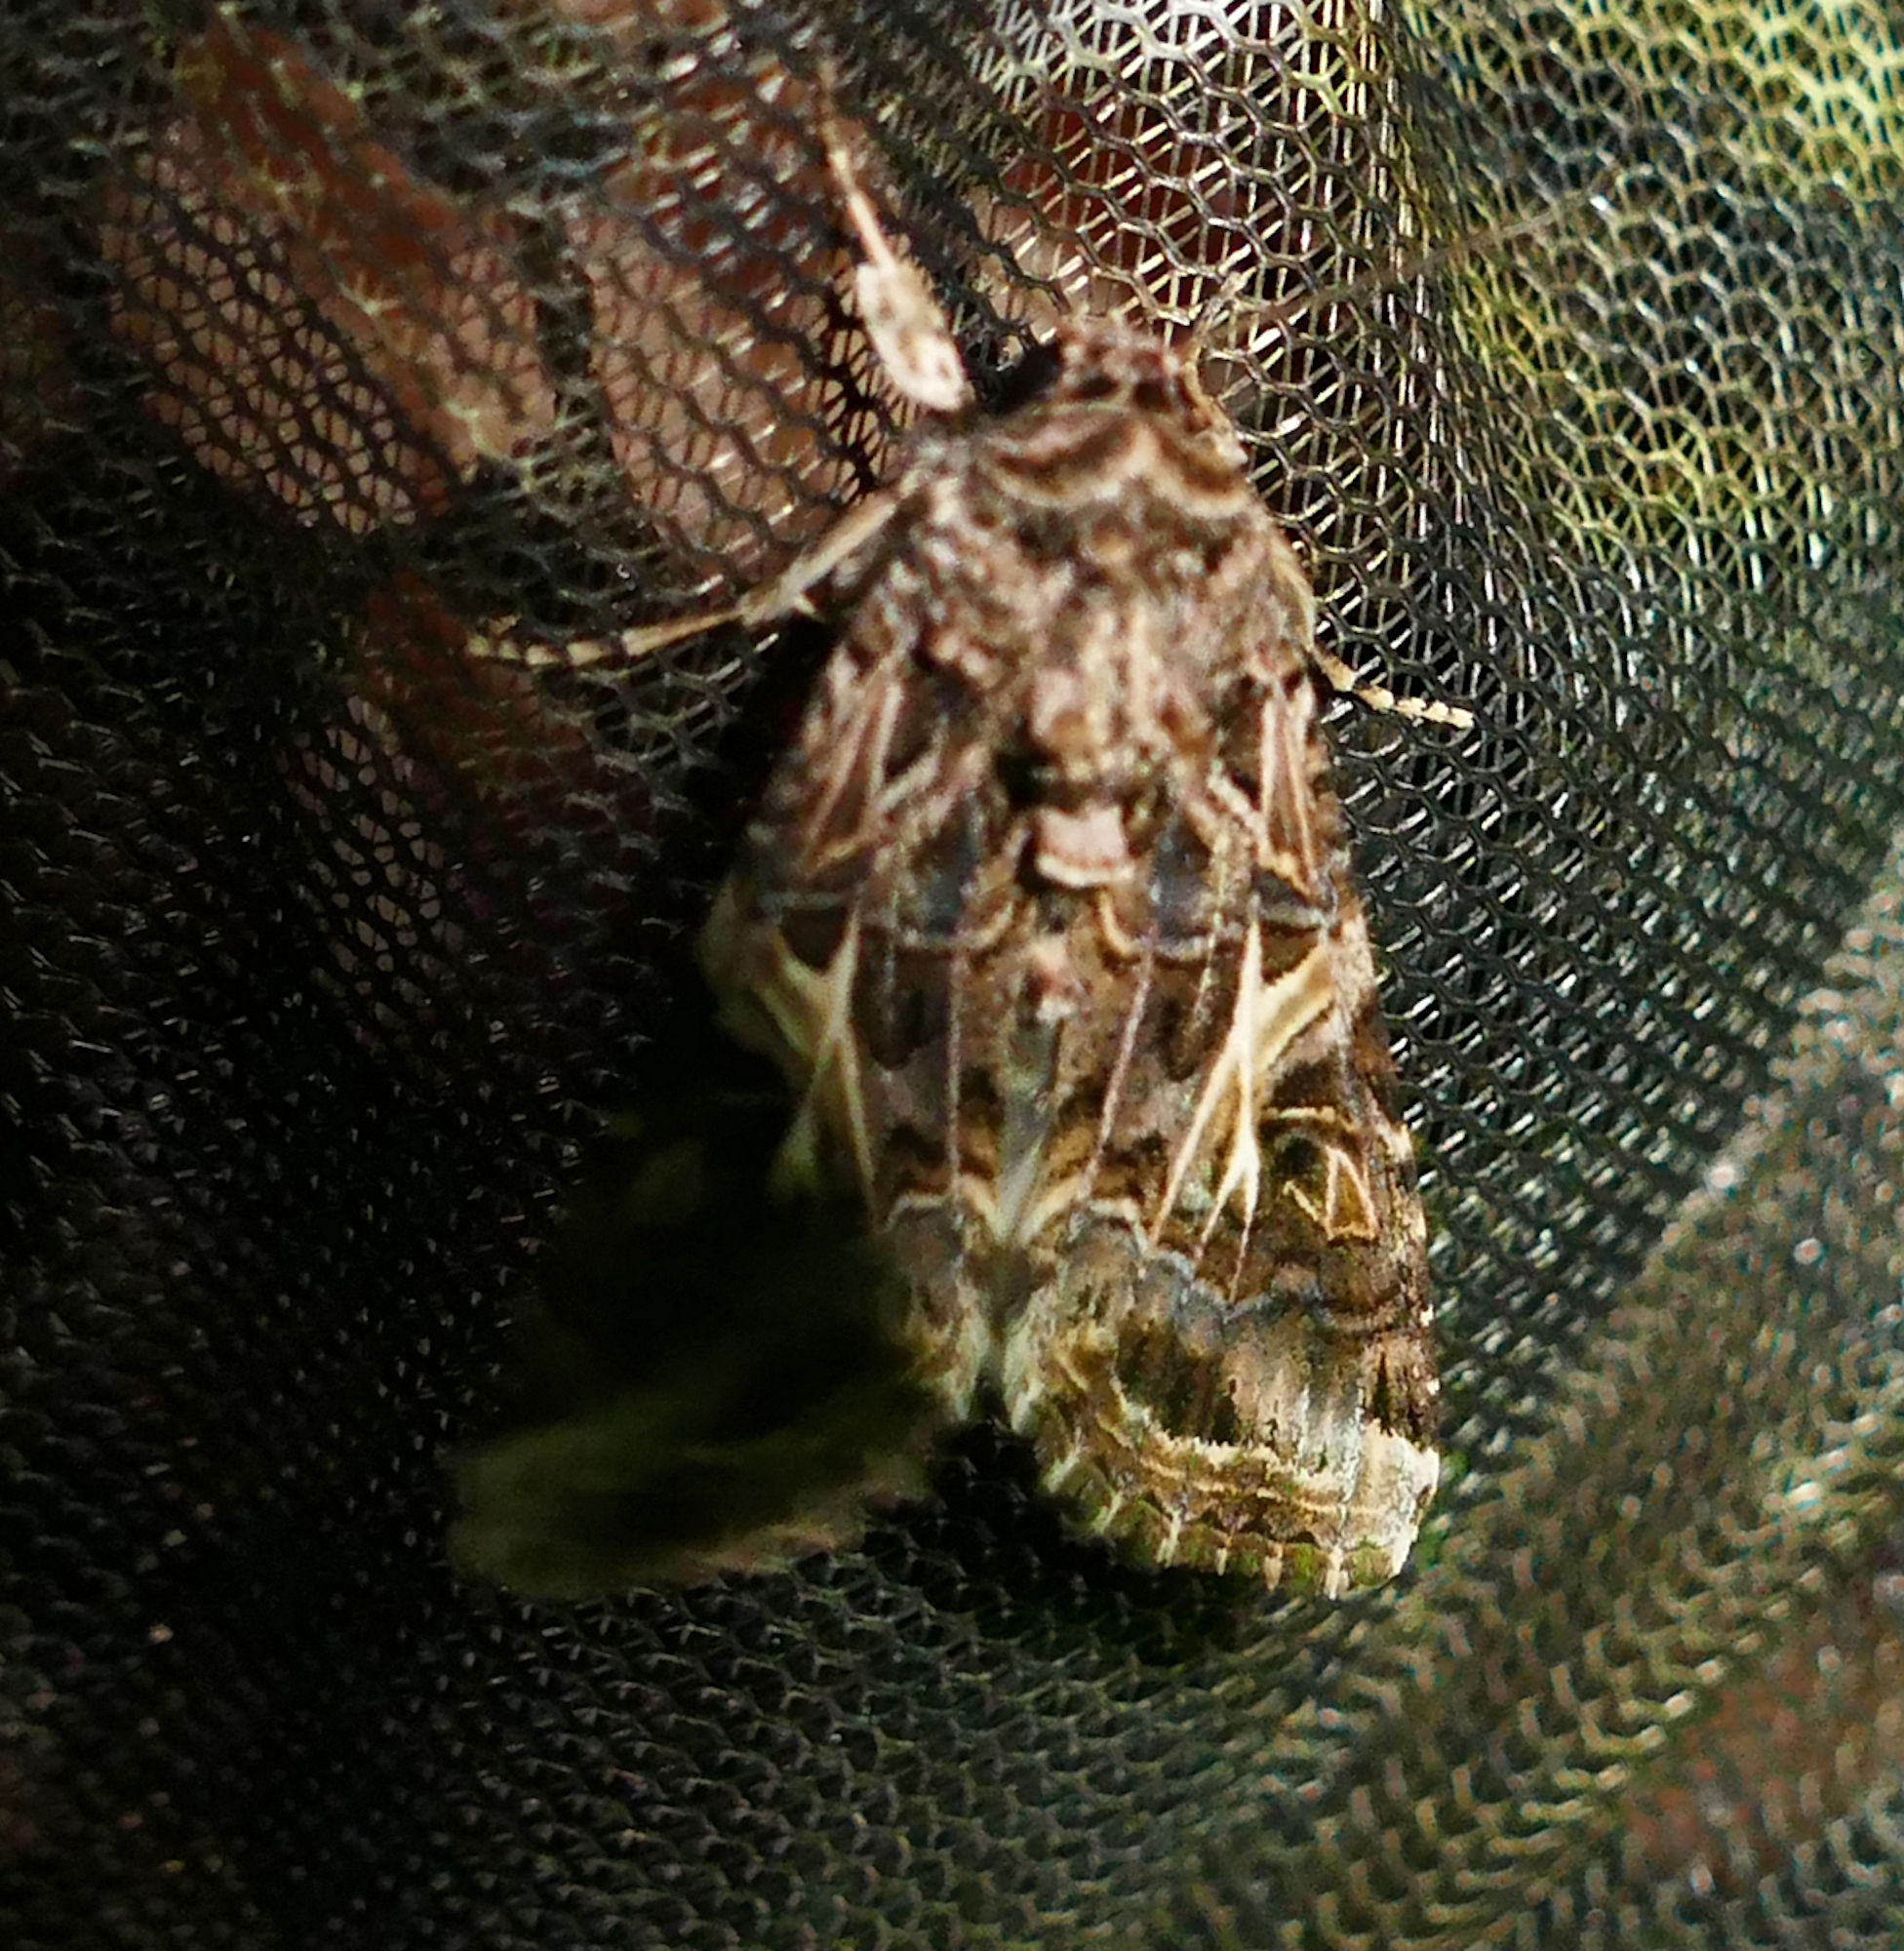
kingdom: Animalia
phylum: Arthropoda
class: Insecta
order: Lepidoptera
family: Noctuidae
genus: Spodoptera
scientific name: Spodoptera ornithogalli
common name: Yellow-striped armyworm
